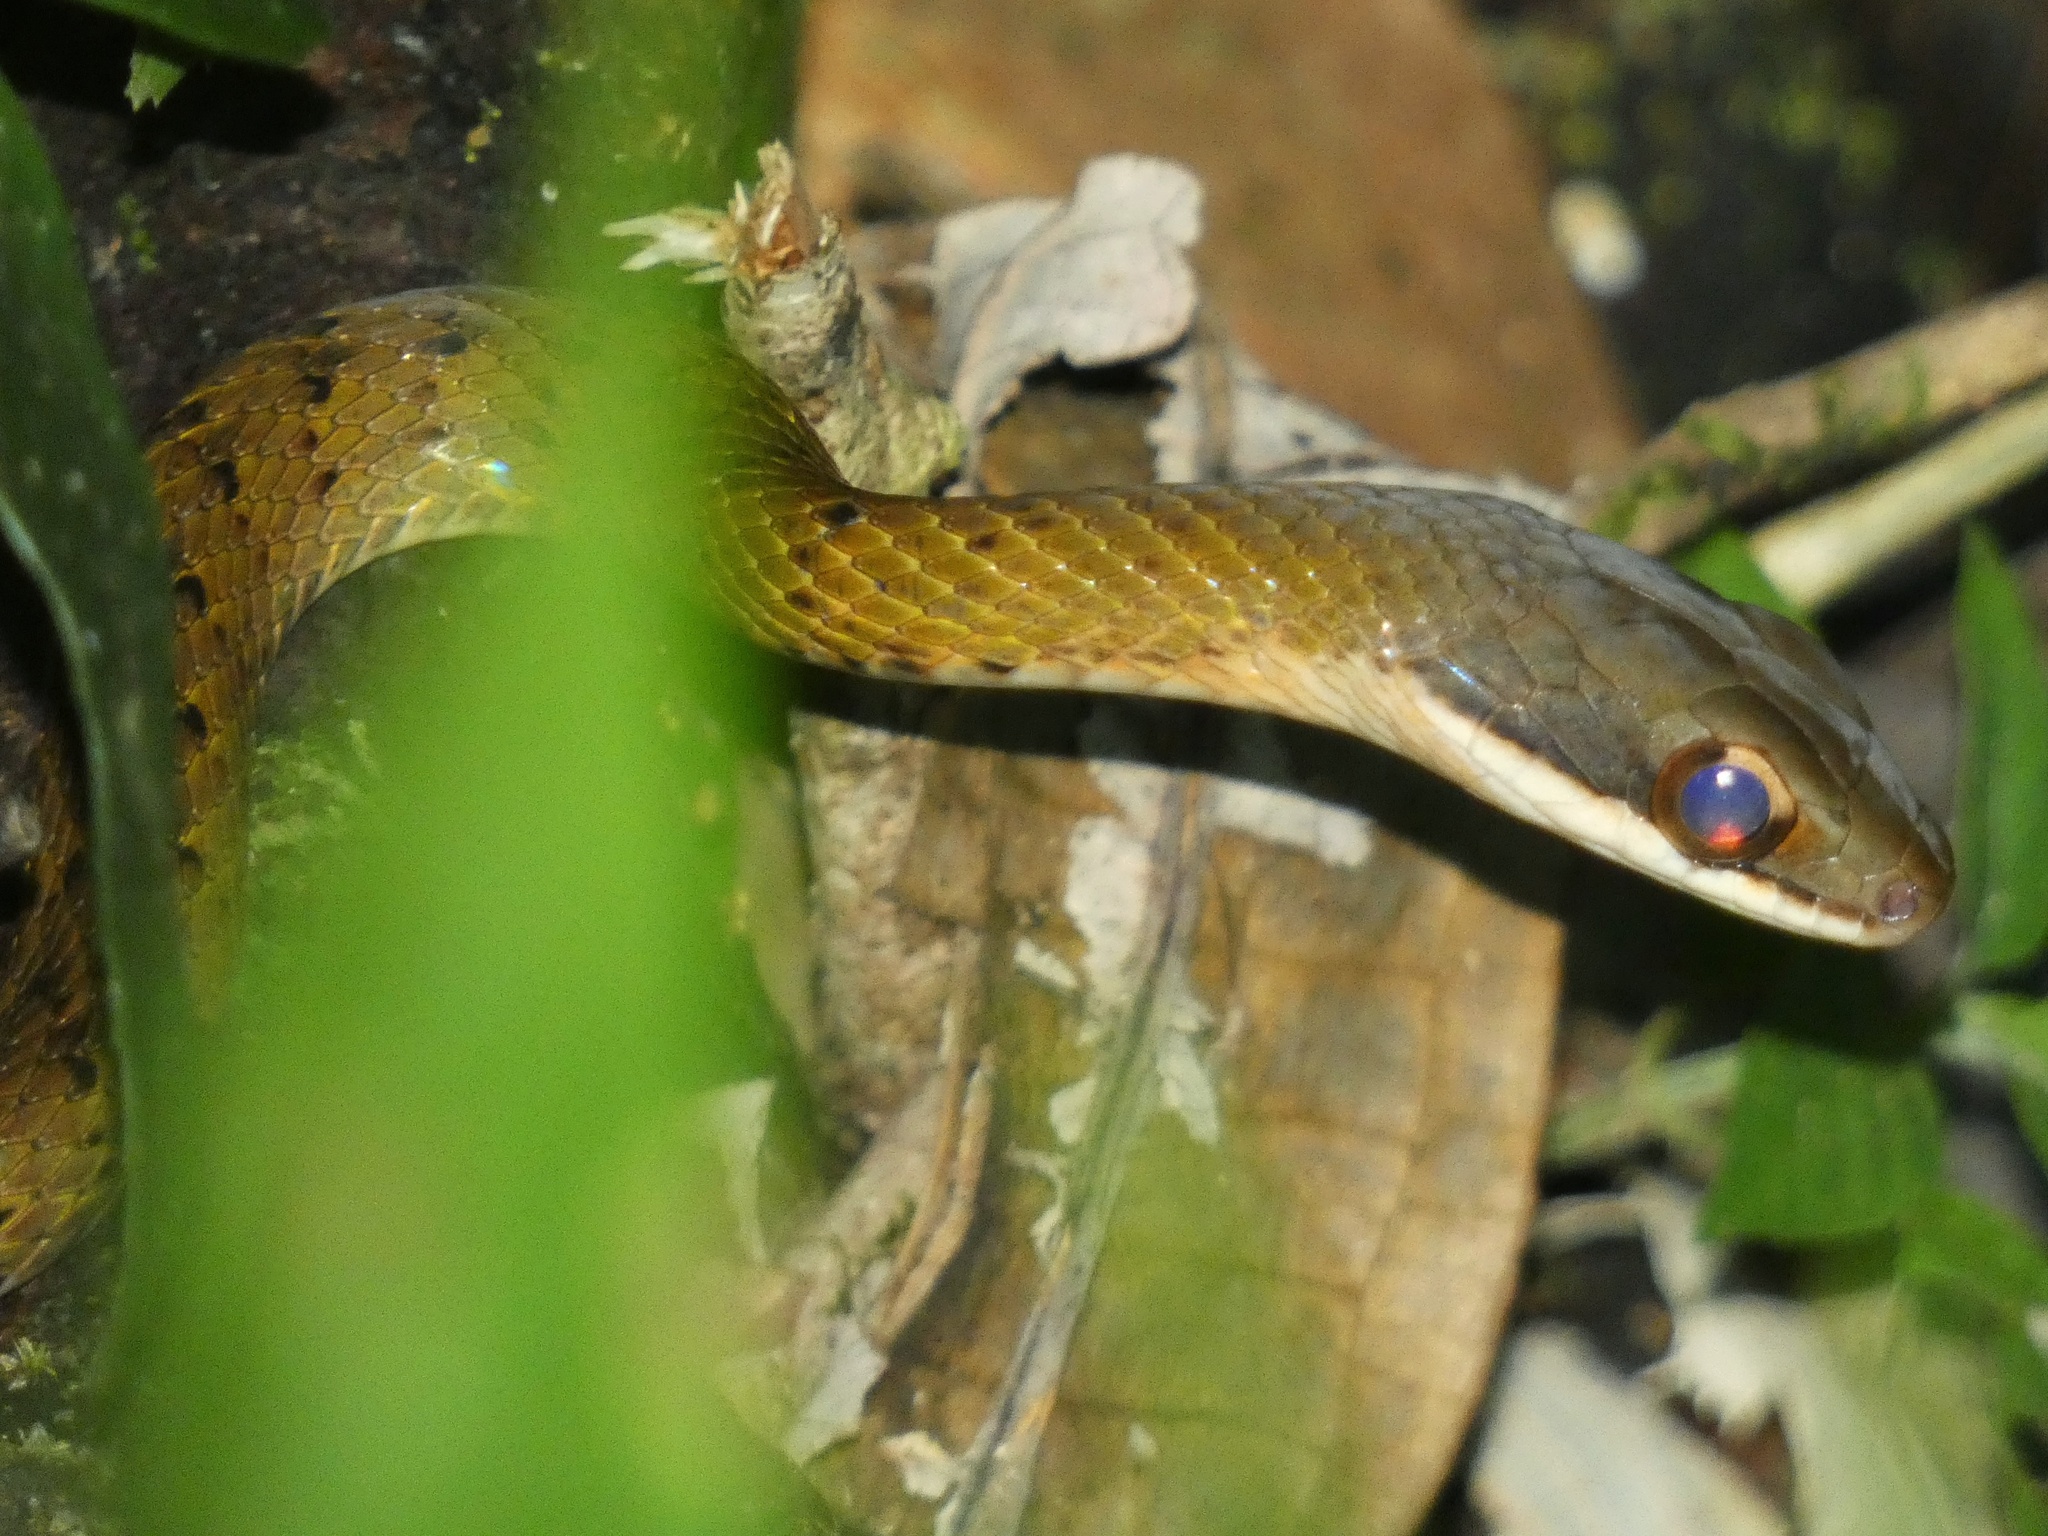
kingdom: Animalia
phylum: Chordata
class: Squamata
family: Colubridae
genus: Dendrophidion
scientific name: Dendrophidion percarinatum
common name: South american forest racer
